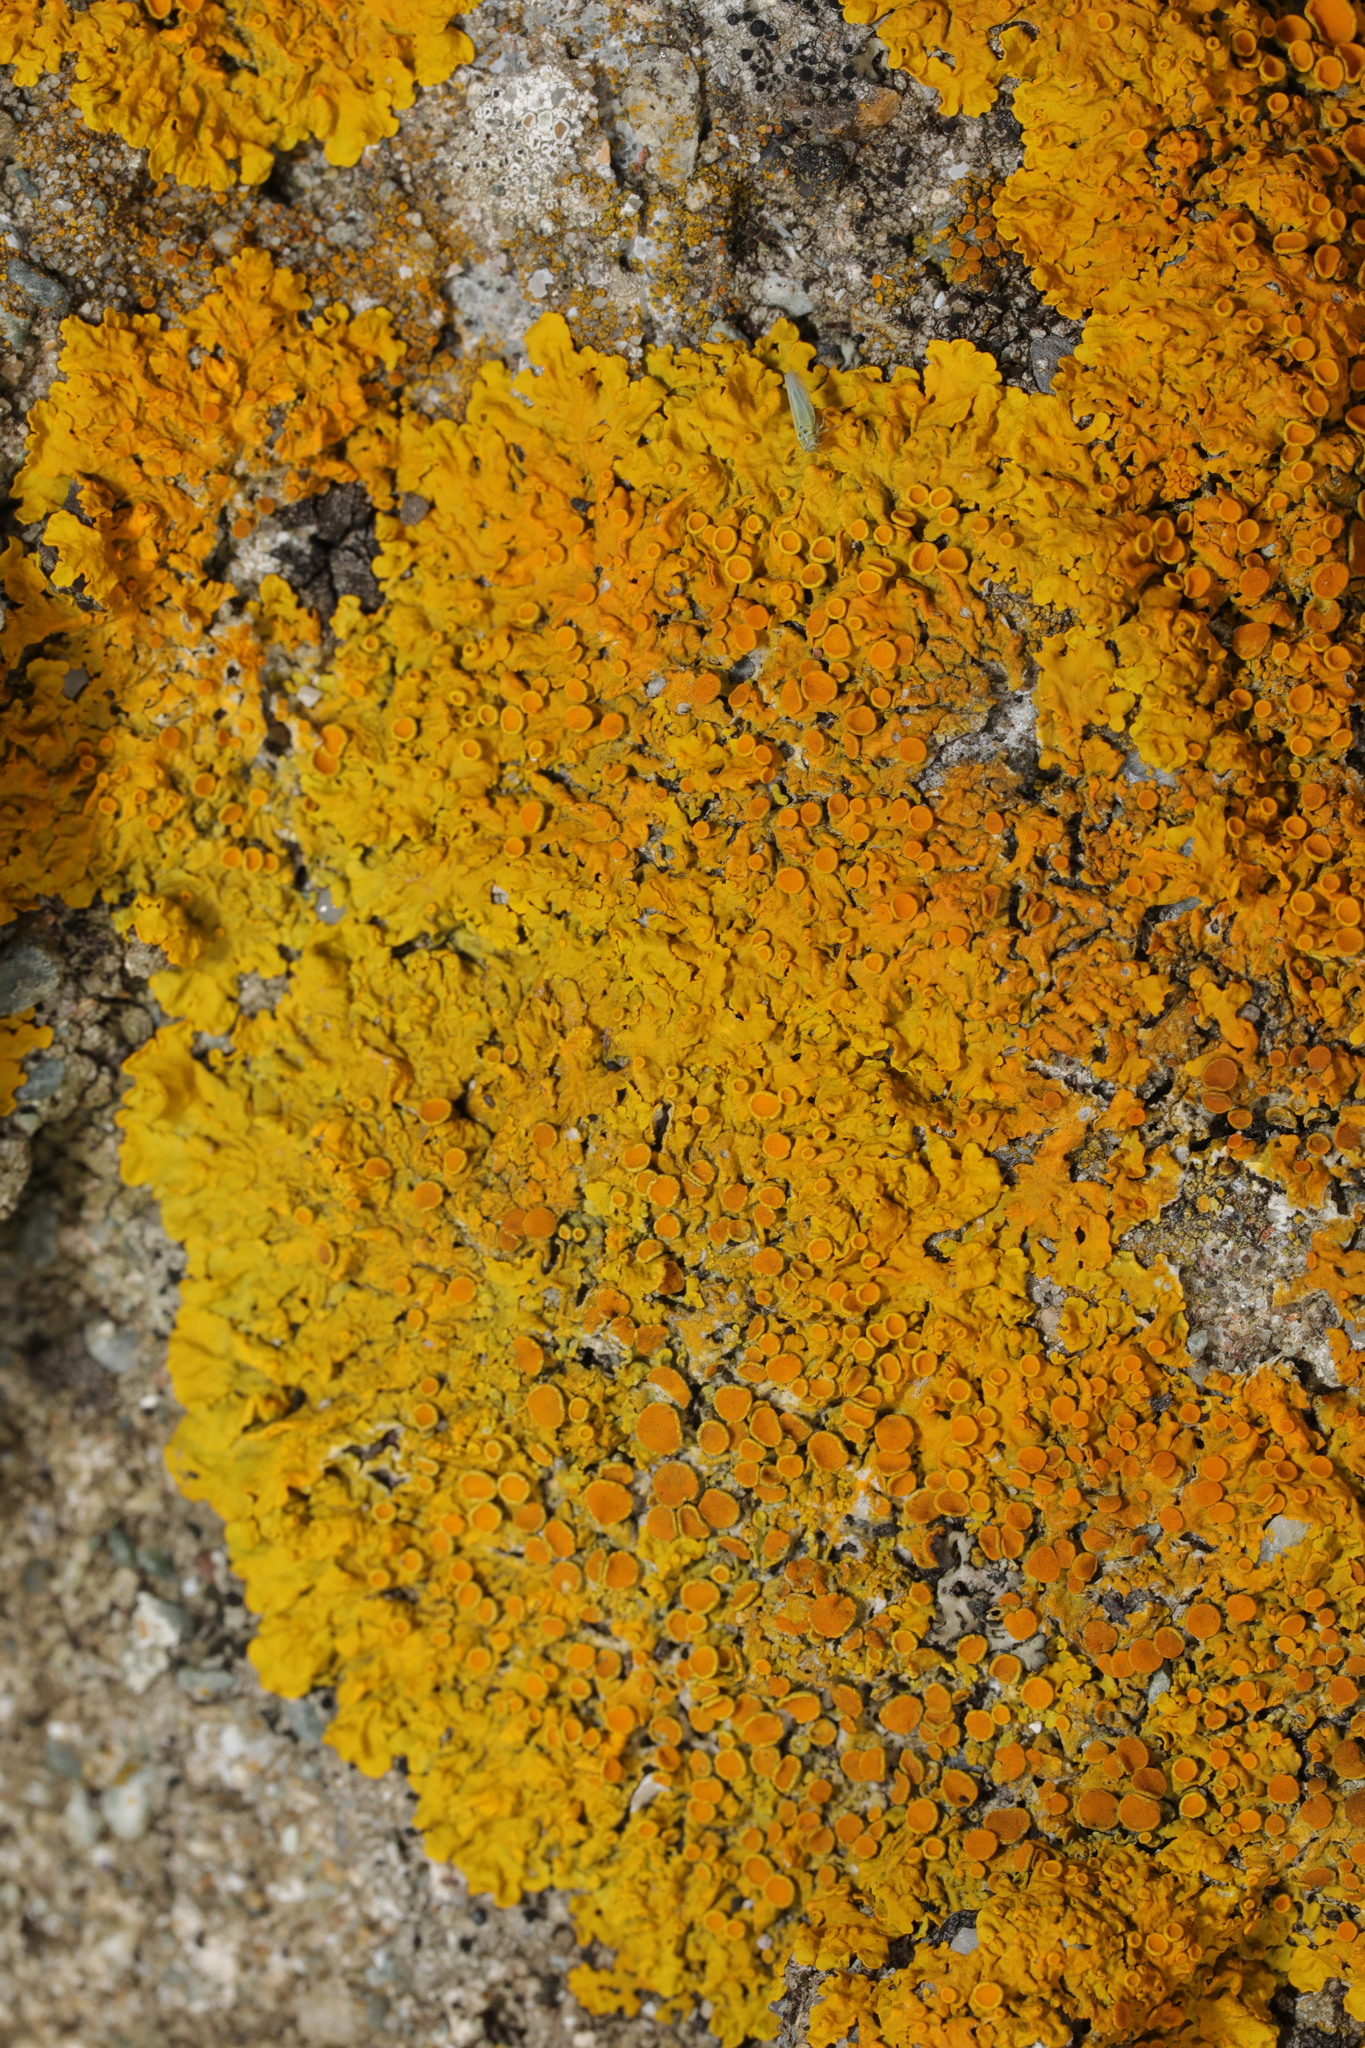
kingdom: Fungi
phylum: Ascomycota
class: Lecanoromycetes
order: Teloschistales
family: Teloschistaceae
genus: Xanthoria
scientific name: Xanthoria parietina
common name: Common orange lichen
